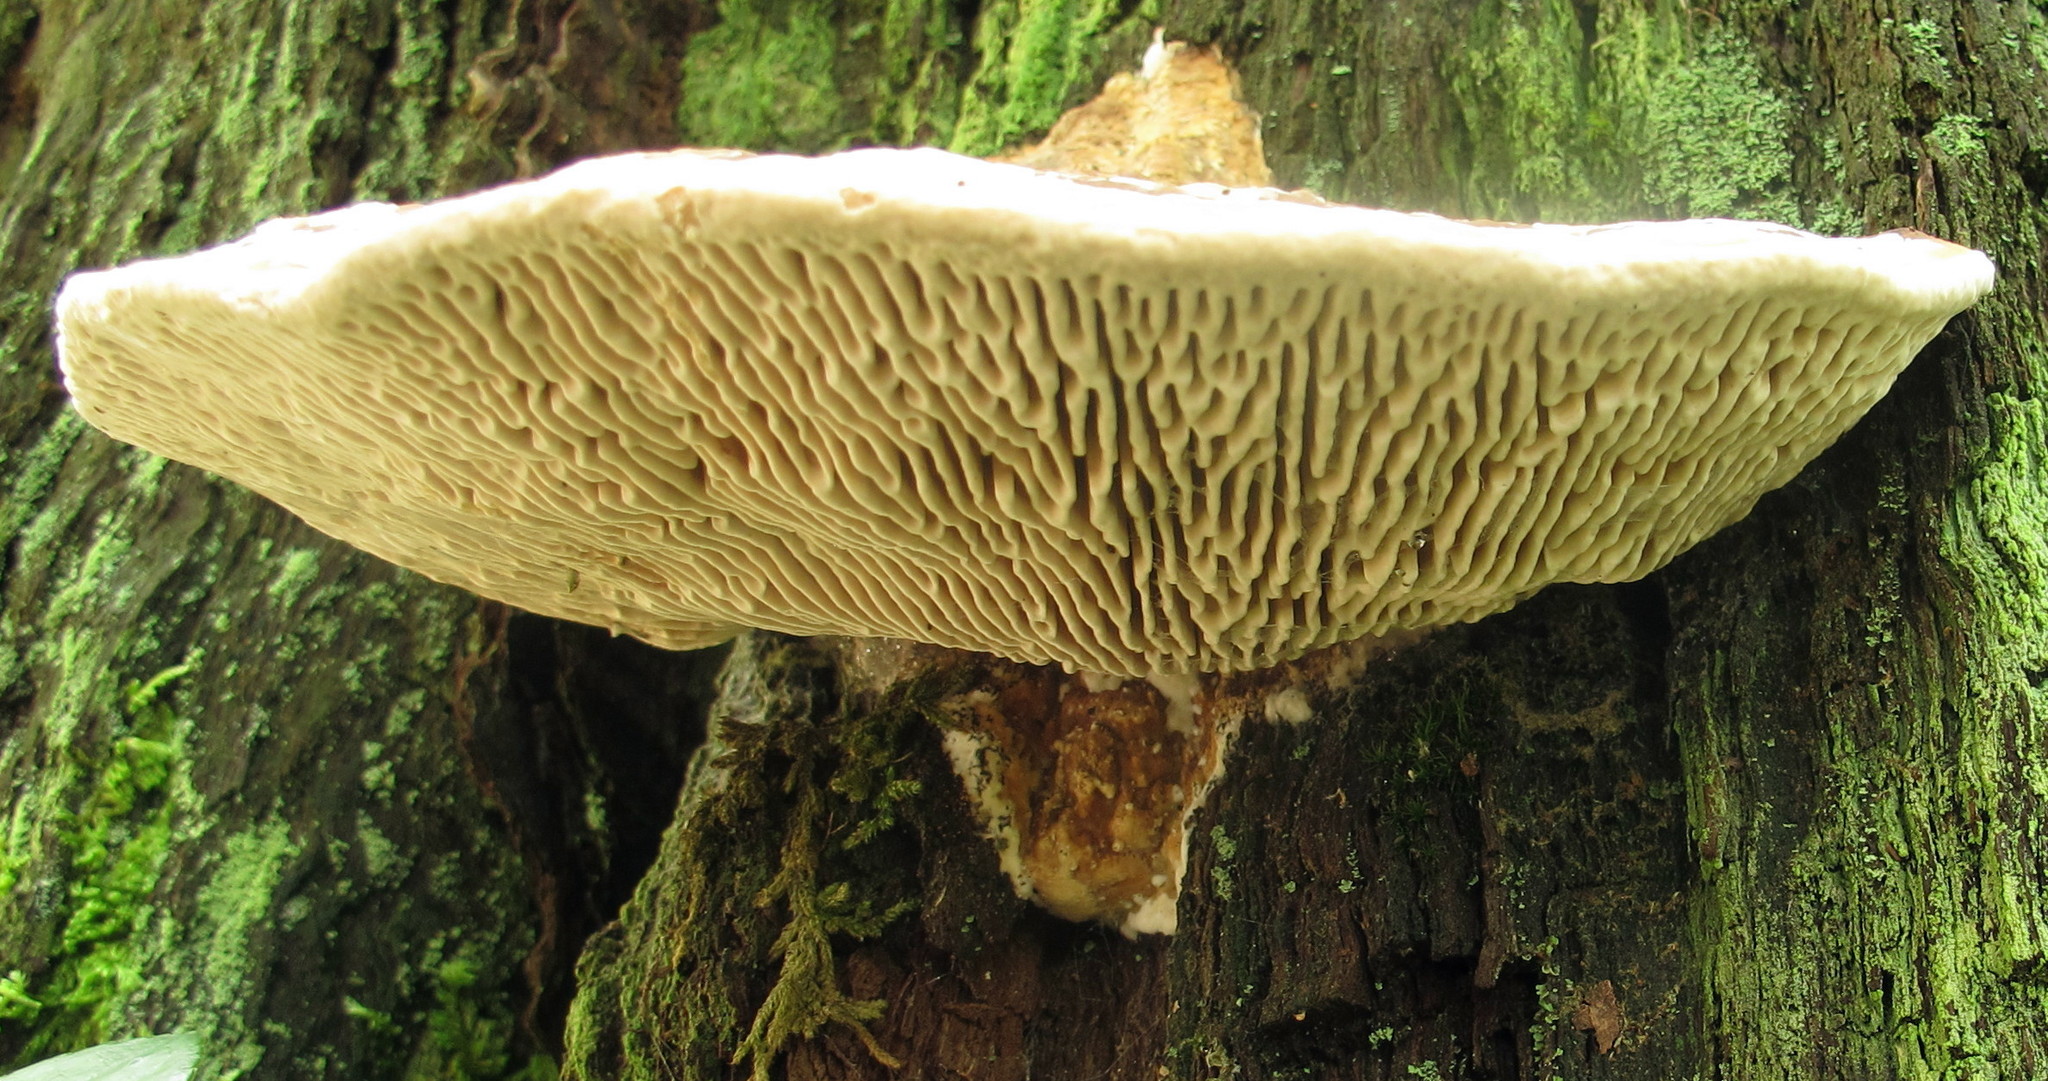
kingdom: Fungi
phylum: Basidiomycota
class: Agaricomycetes
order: Polyporales
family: Fomitopsidaceae
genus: Fomitopsis
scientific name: Fomitopsis
